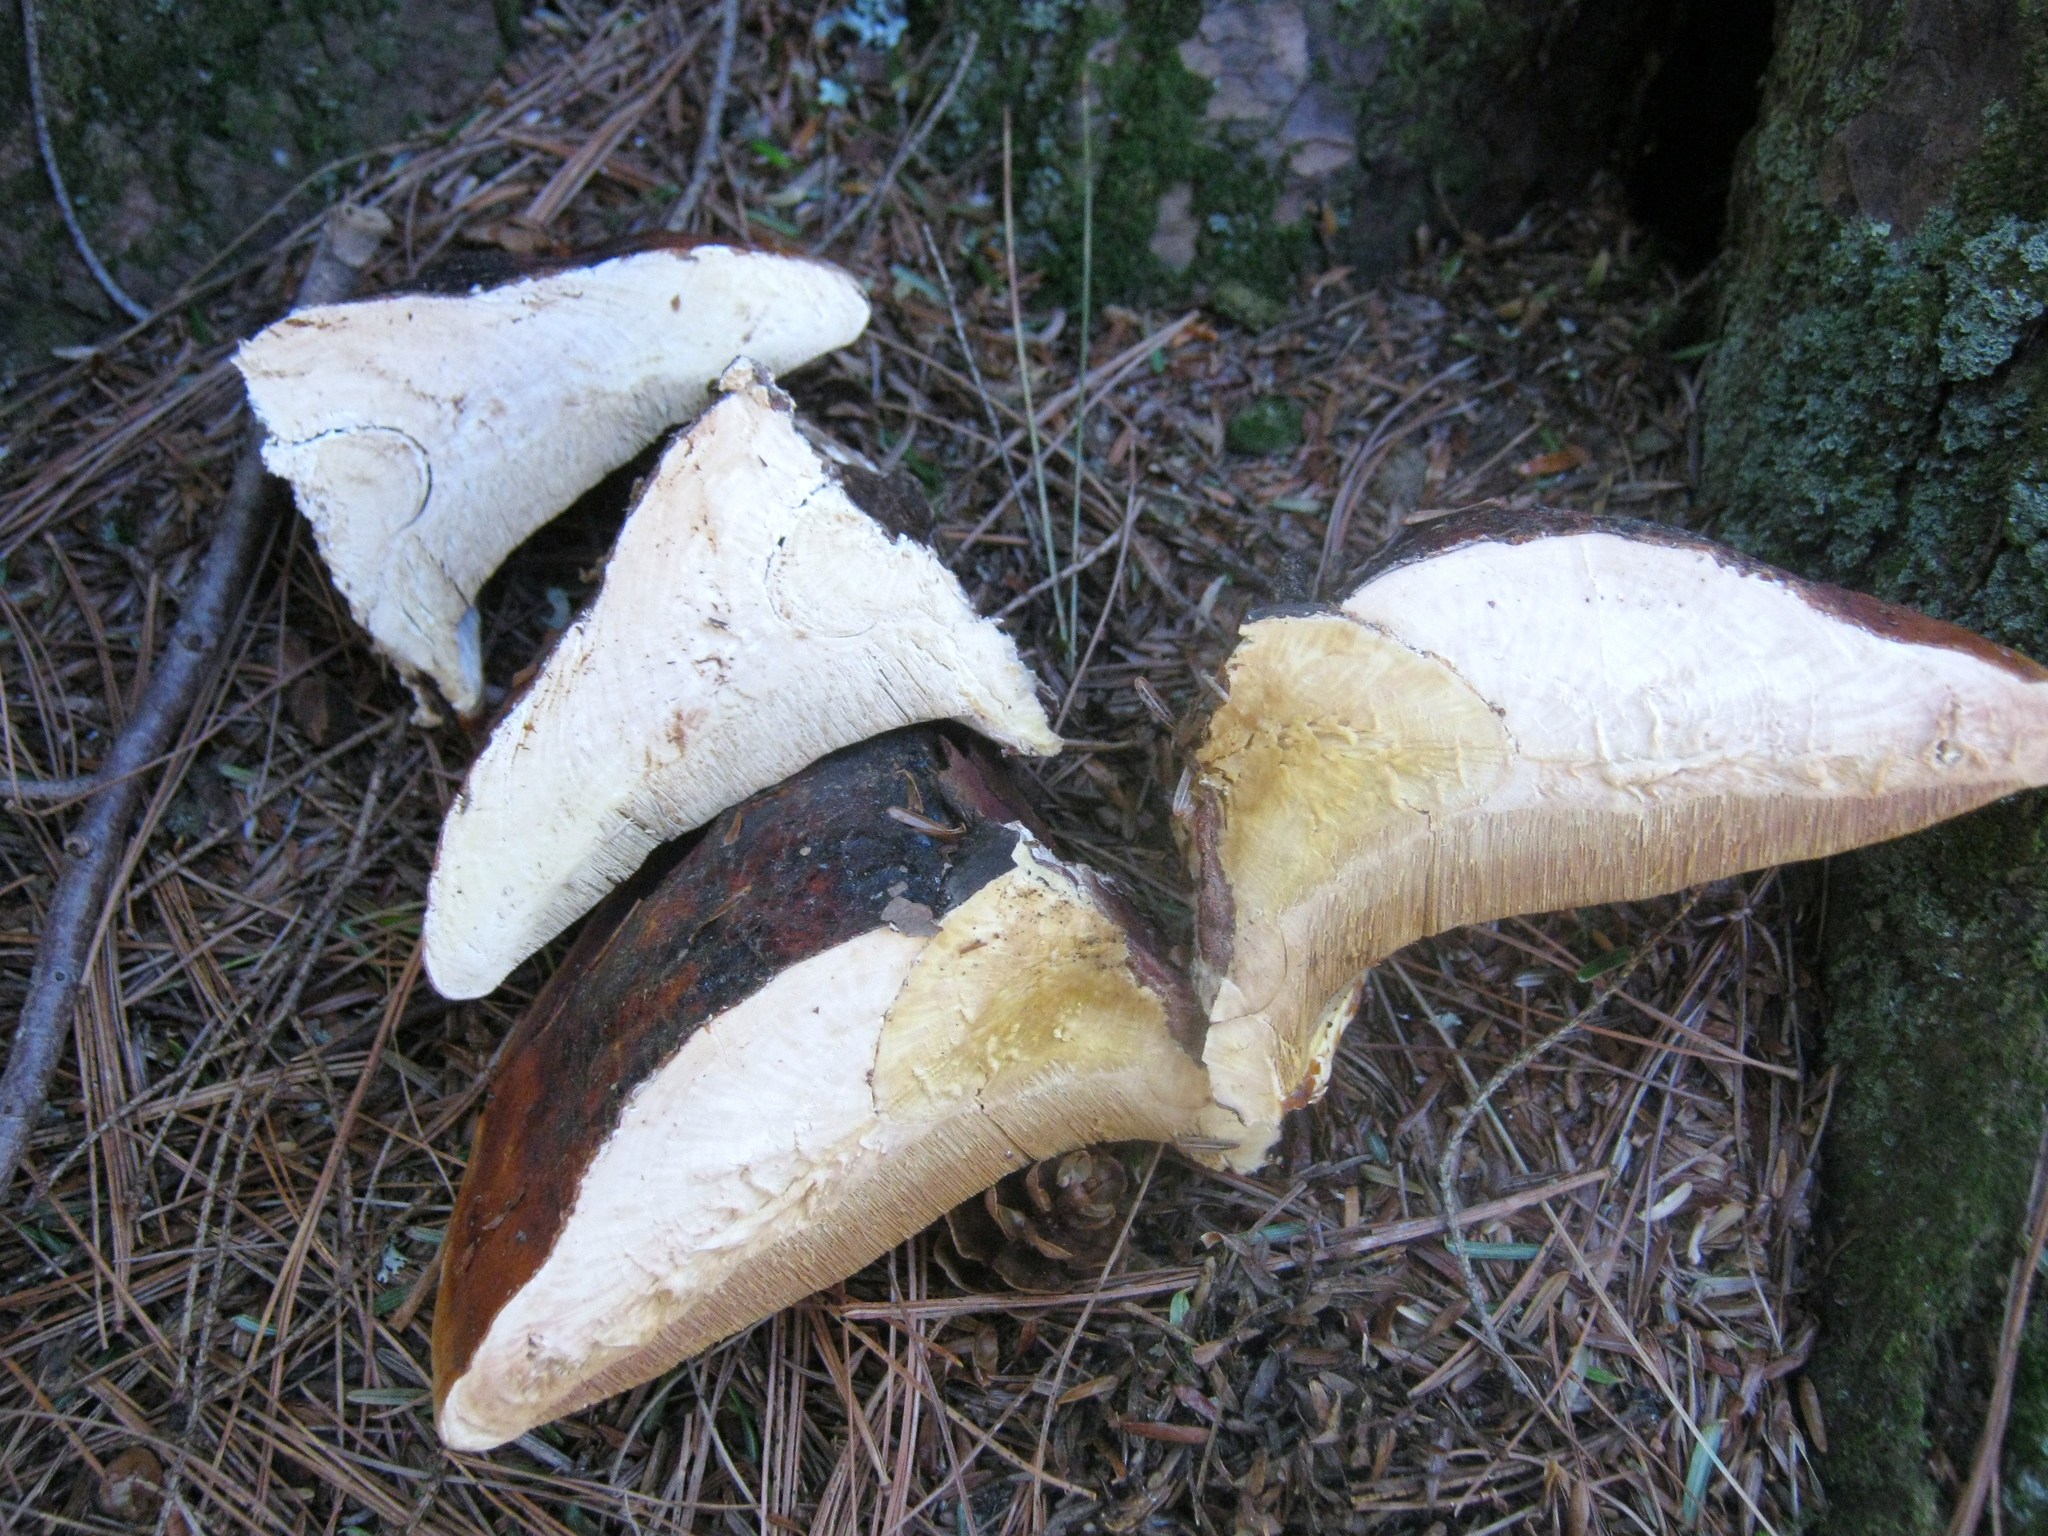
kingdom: Fungi
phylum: Basidiomycota
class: Agaricomycetes
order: Polyporales
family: Fomitopsidaceae
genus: Fomitopsis
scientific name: Fomitopsis mounceae
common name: Northern red belt
